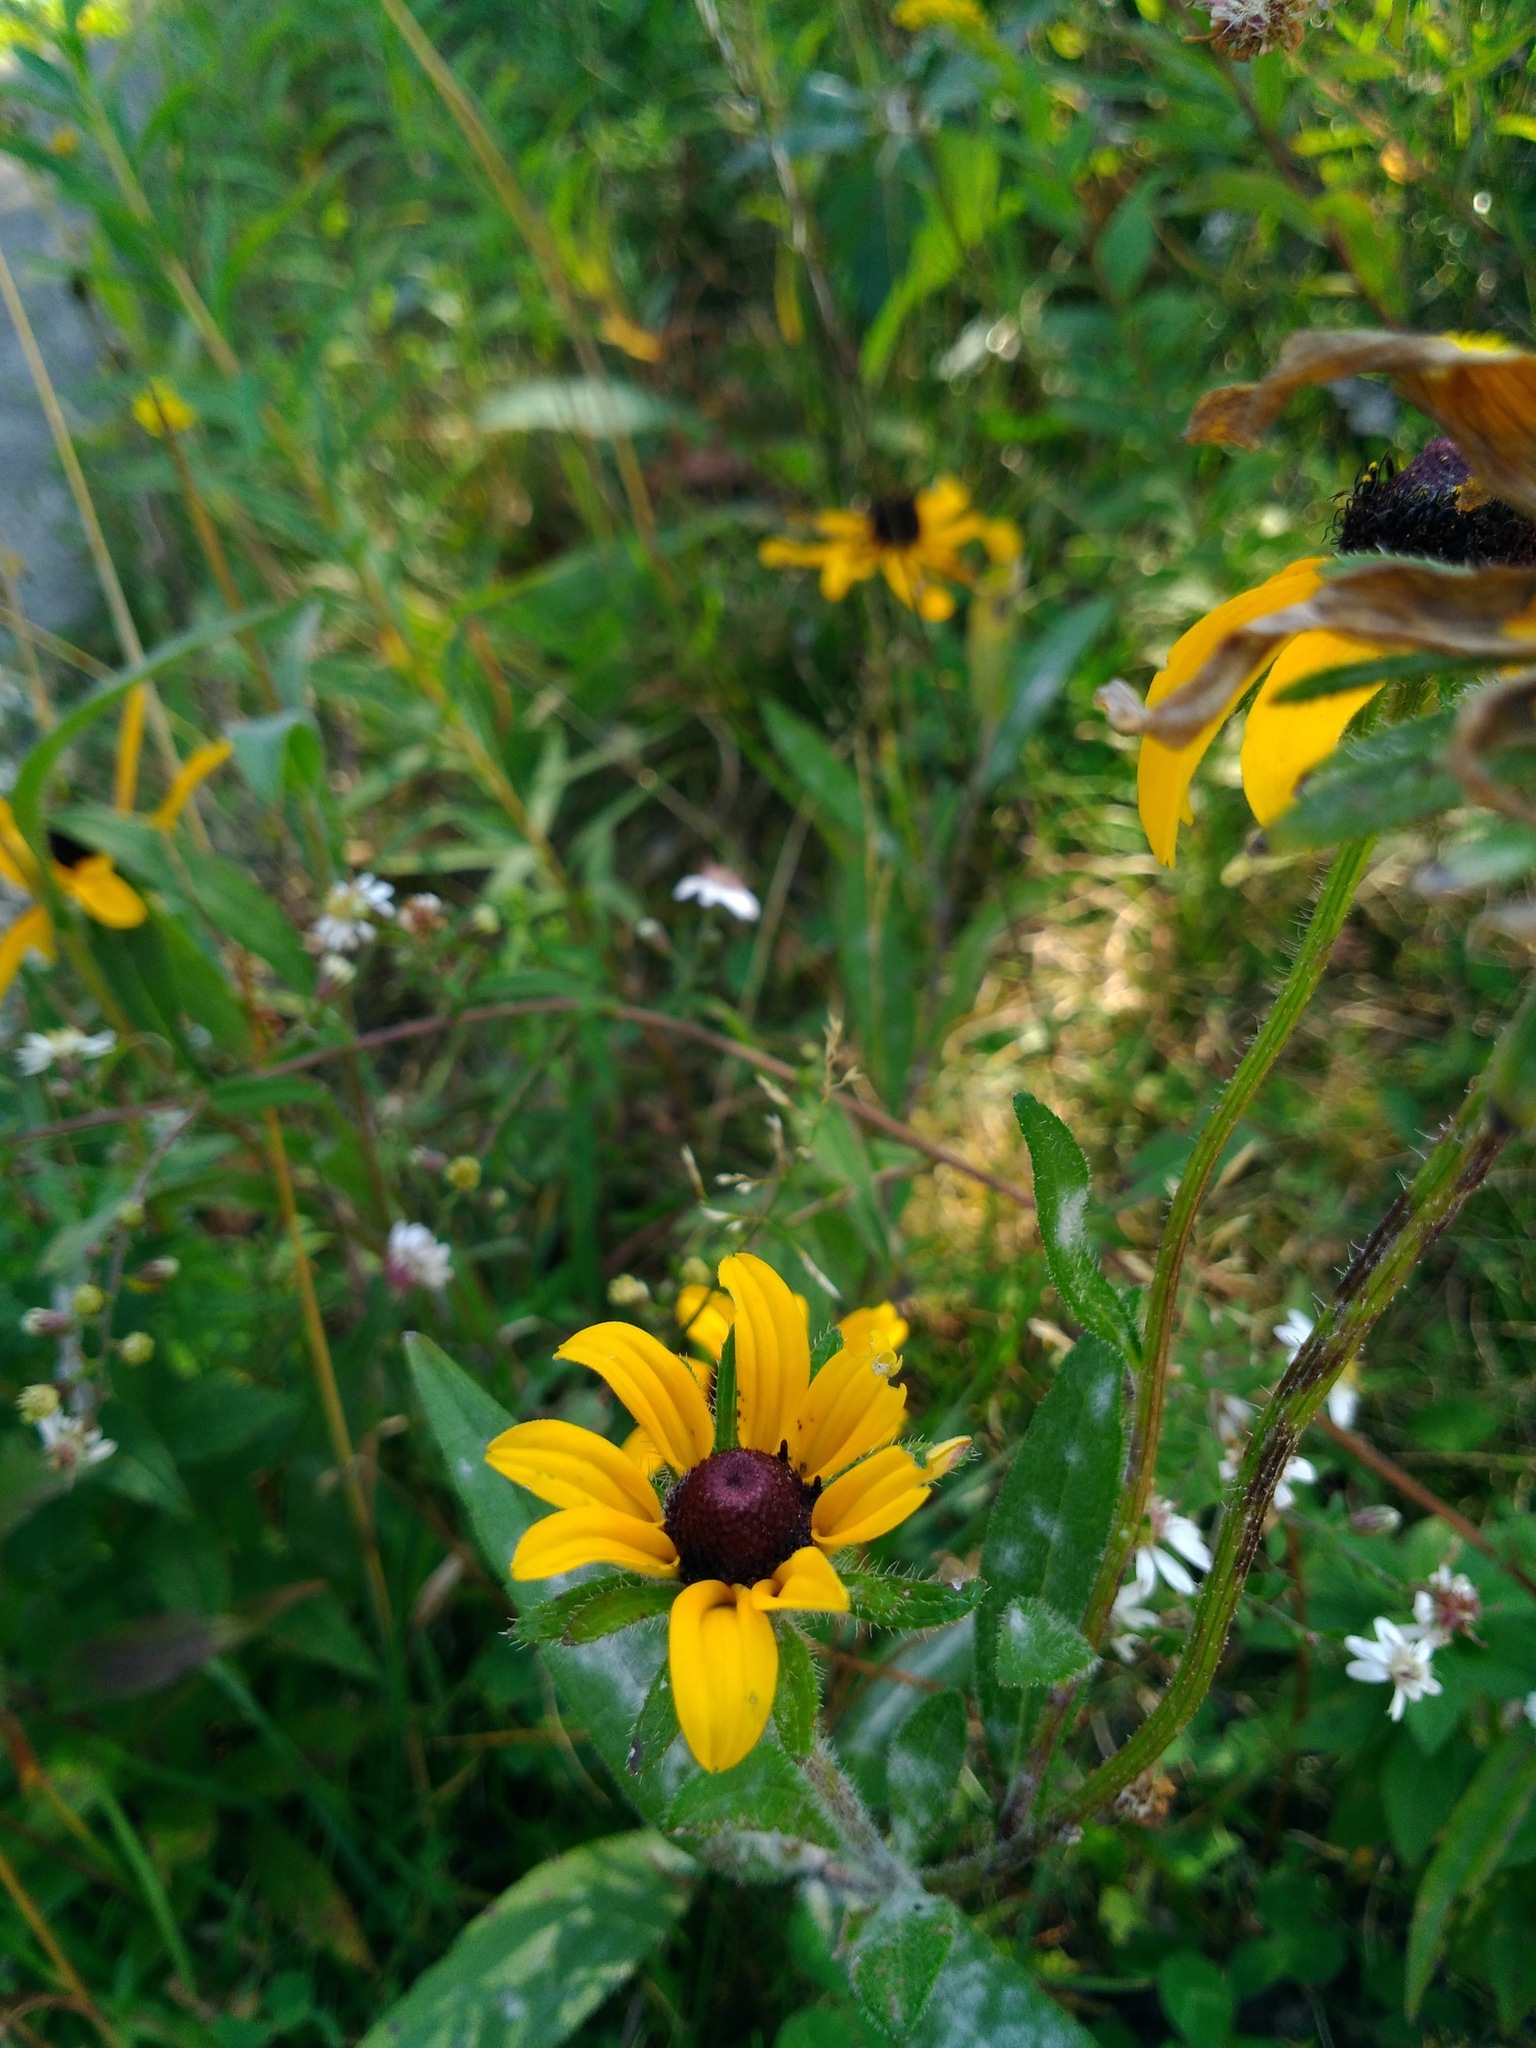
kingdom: Plantae
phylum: Tracheophyta
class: Magnoliopsida
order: Asterales
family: Asteraceae
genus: Rudbeckia
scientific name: Rudbeckia hirta
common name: Black-eyed-susan
